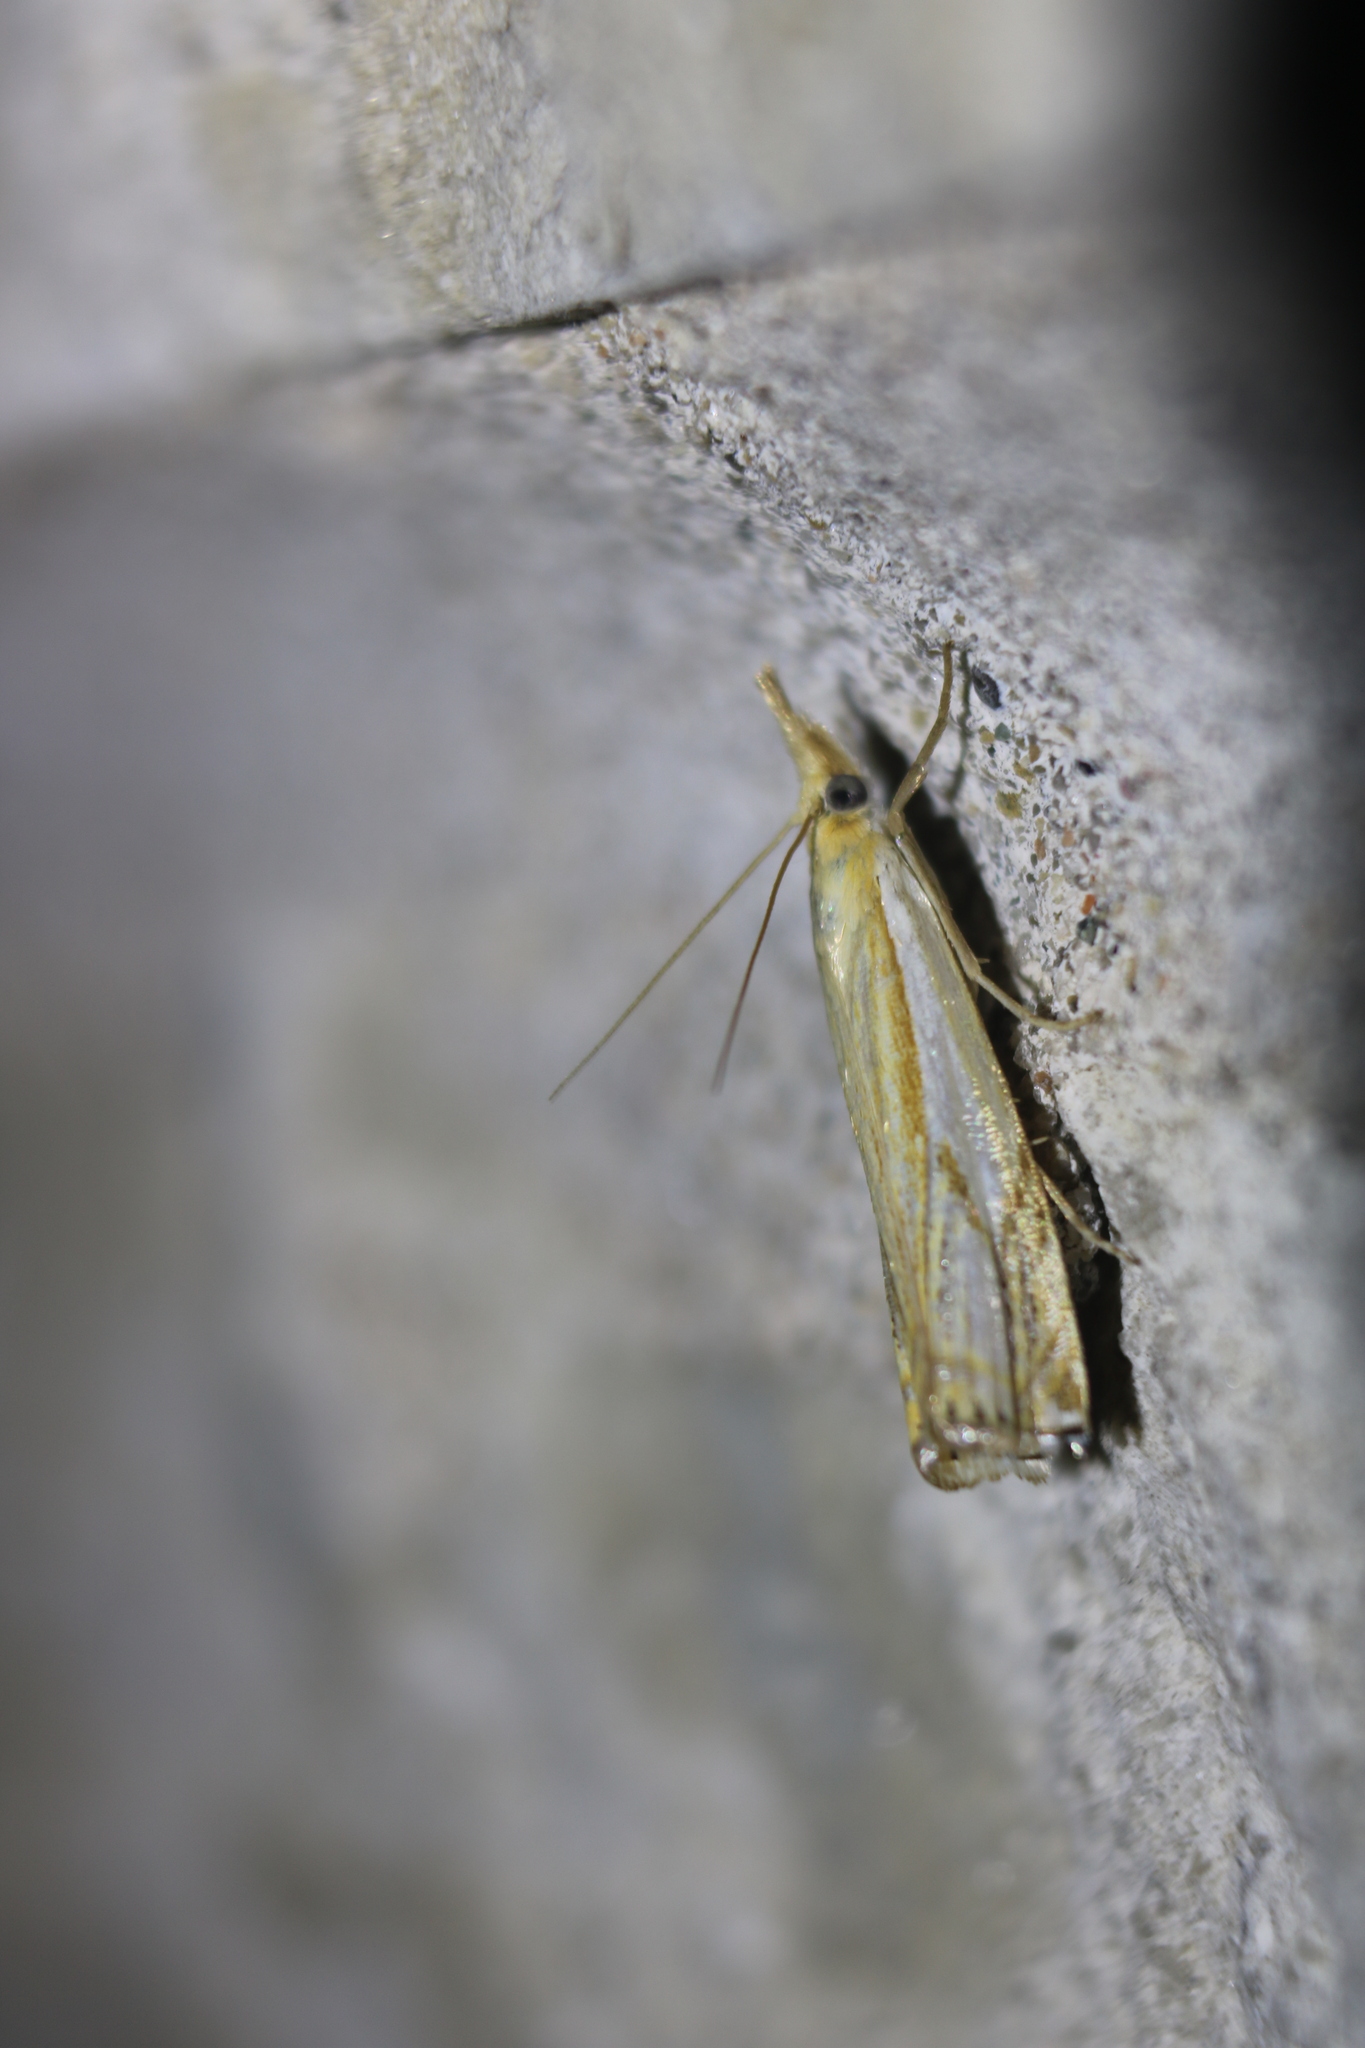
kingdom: Animalia
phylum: Arthropoda
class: Insecta
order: Lepidoptera
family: Crambidae
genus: Crambus
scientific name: Crambus agitatellus
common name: Double-banded grass-veneer
